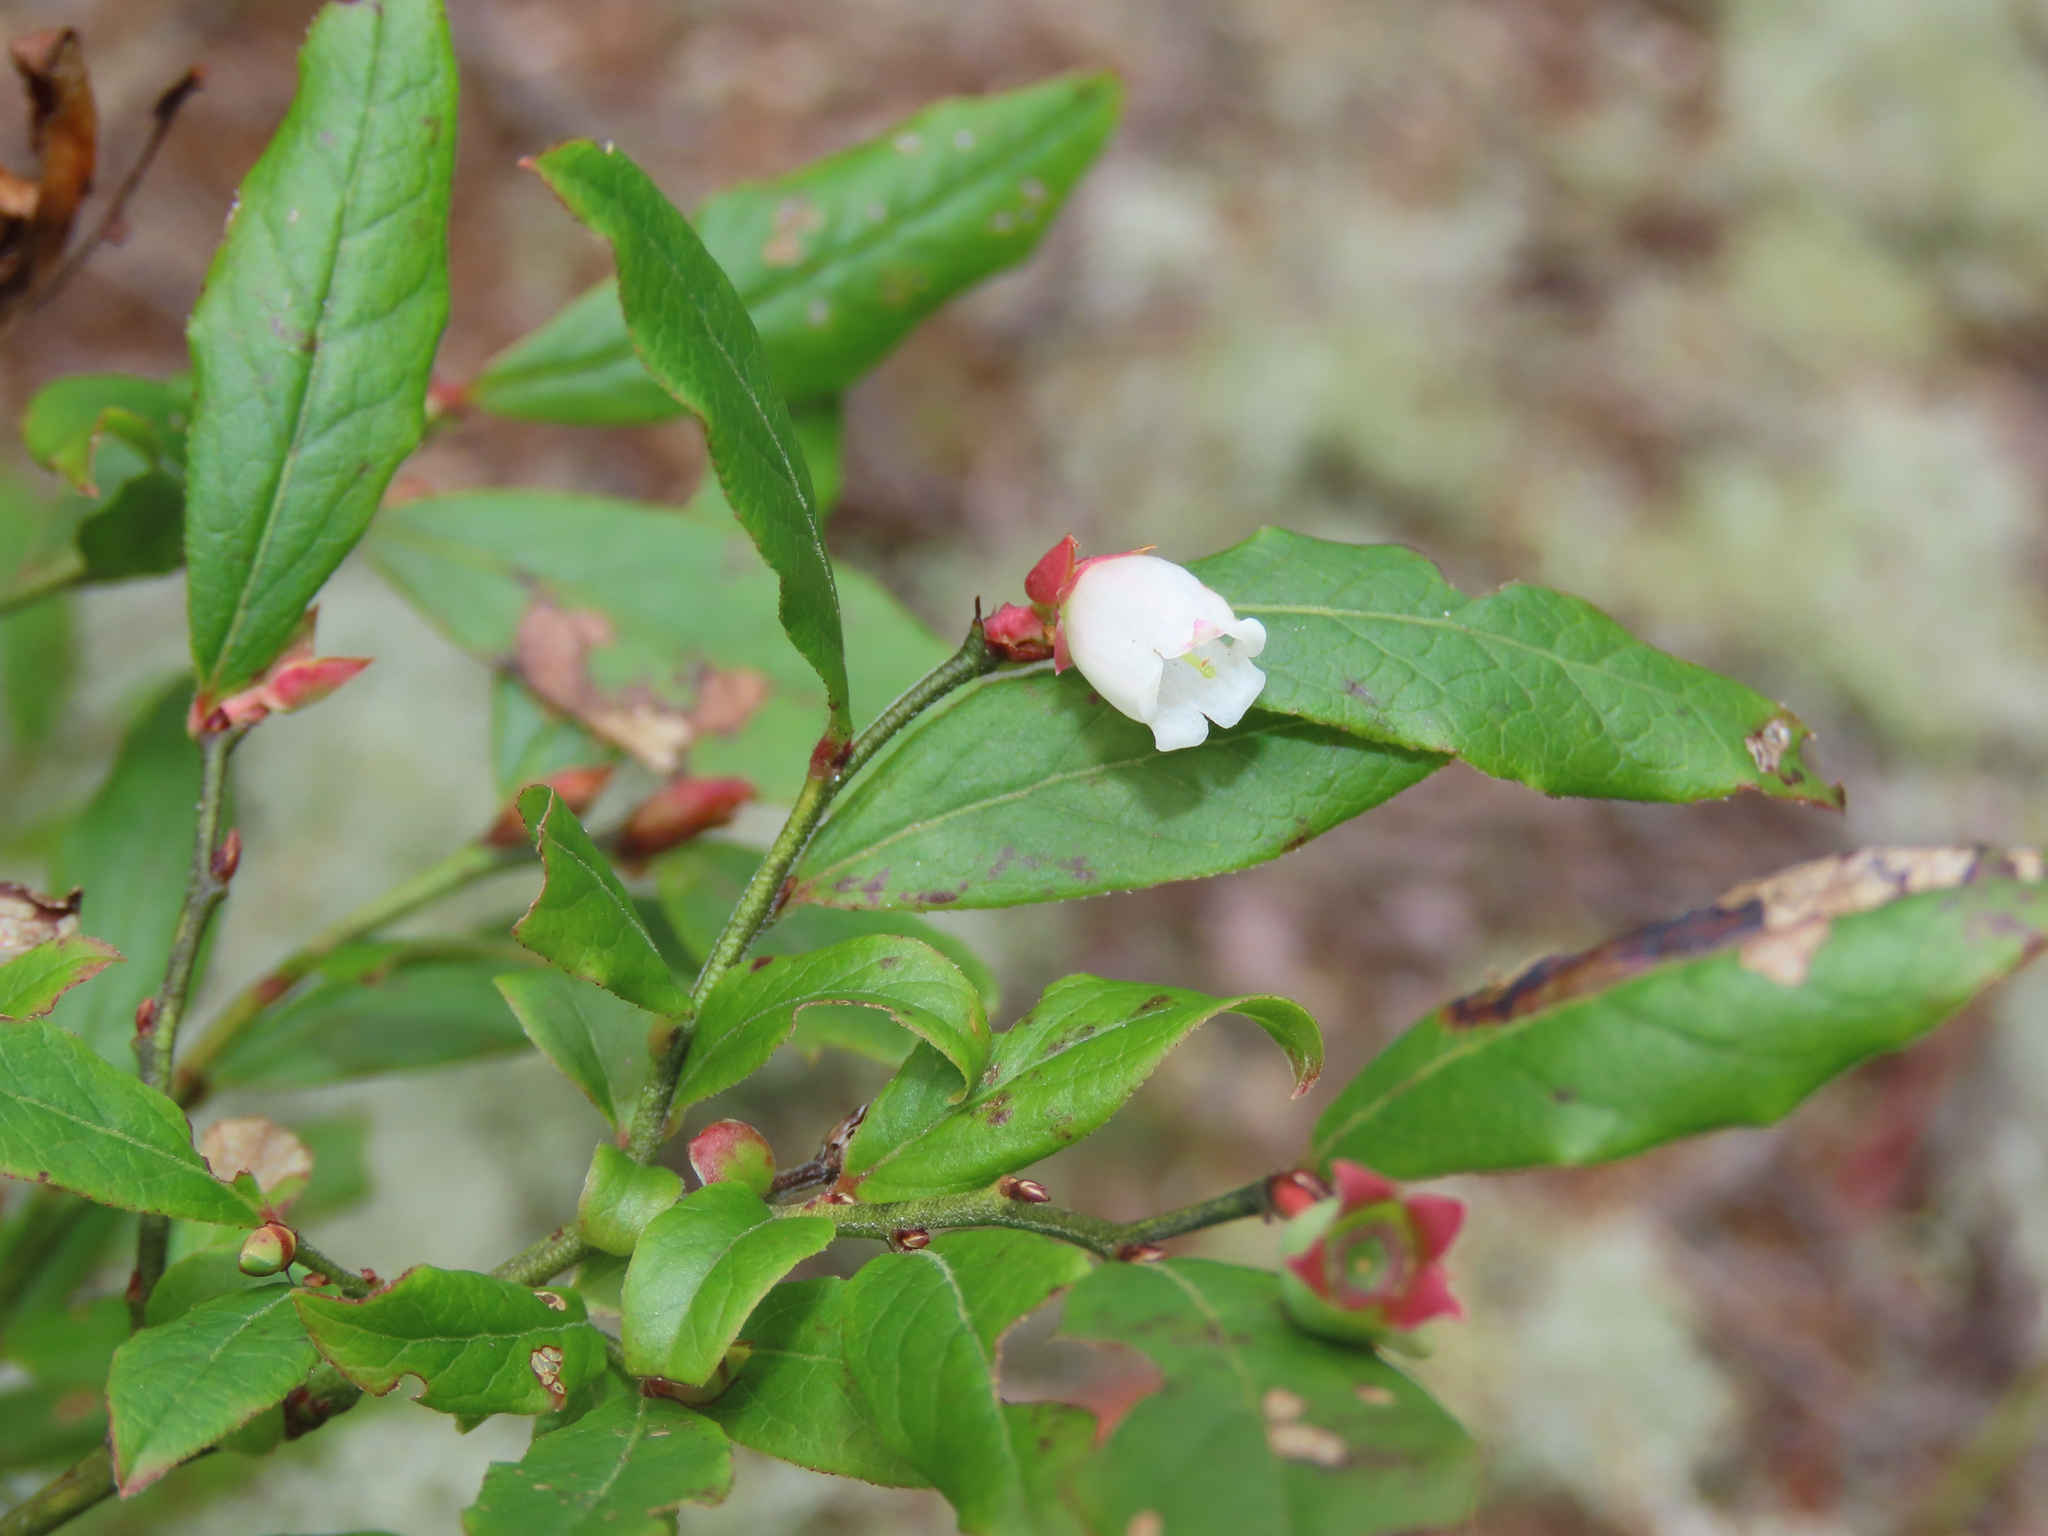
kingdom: Plantae
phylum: Tracheophyta
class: Magnoliopsida
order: Ericales
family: Ericaceae
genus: Vaccinium
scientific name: Vaccinium angustifolium
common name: Early lowbush blueberry
